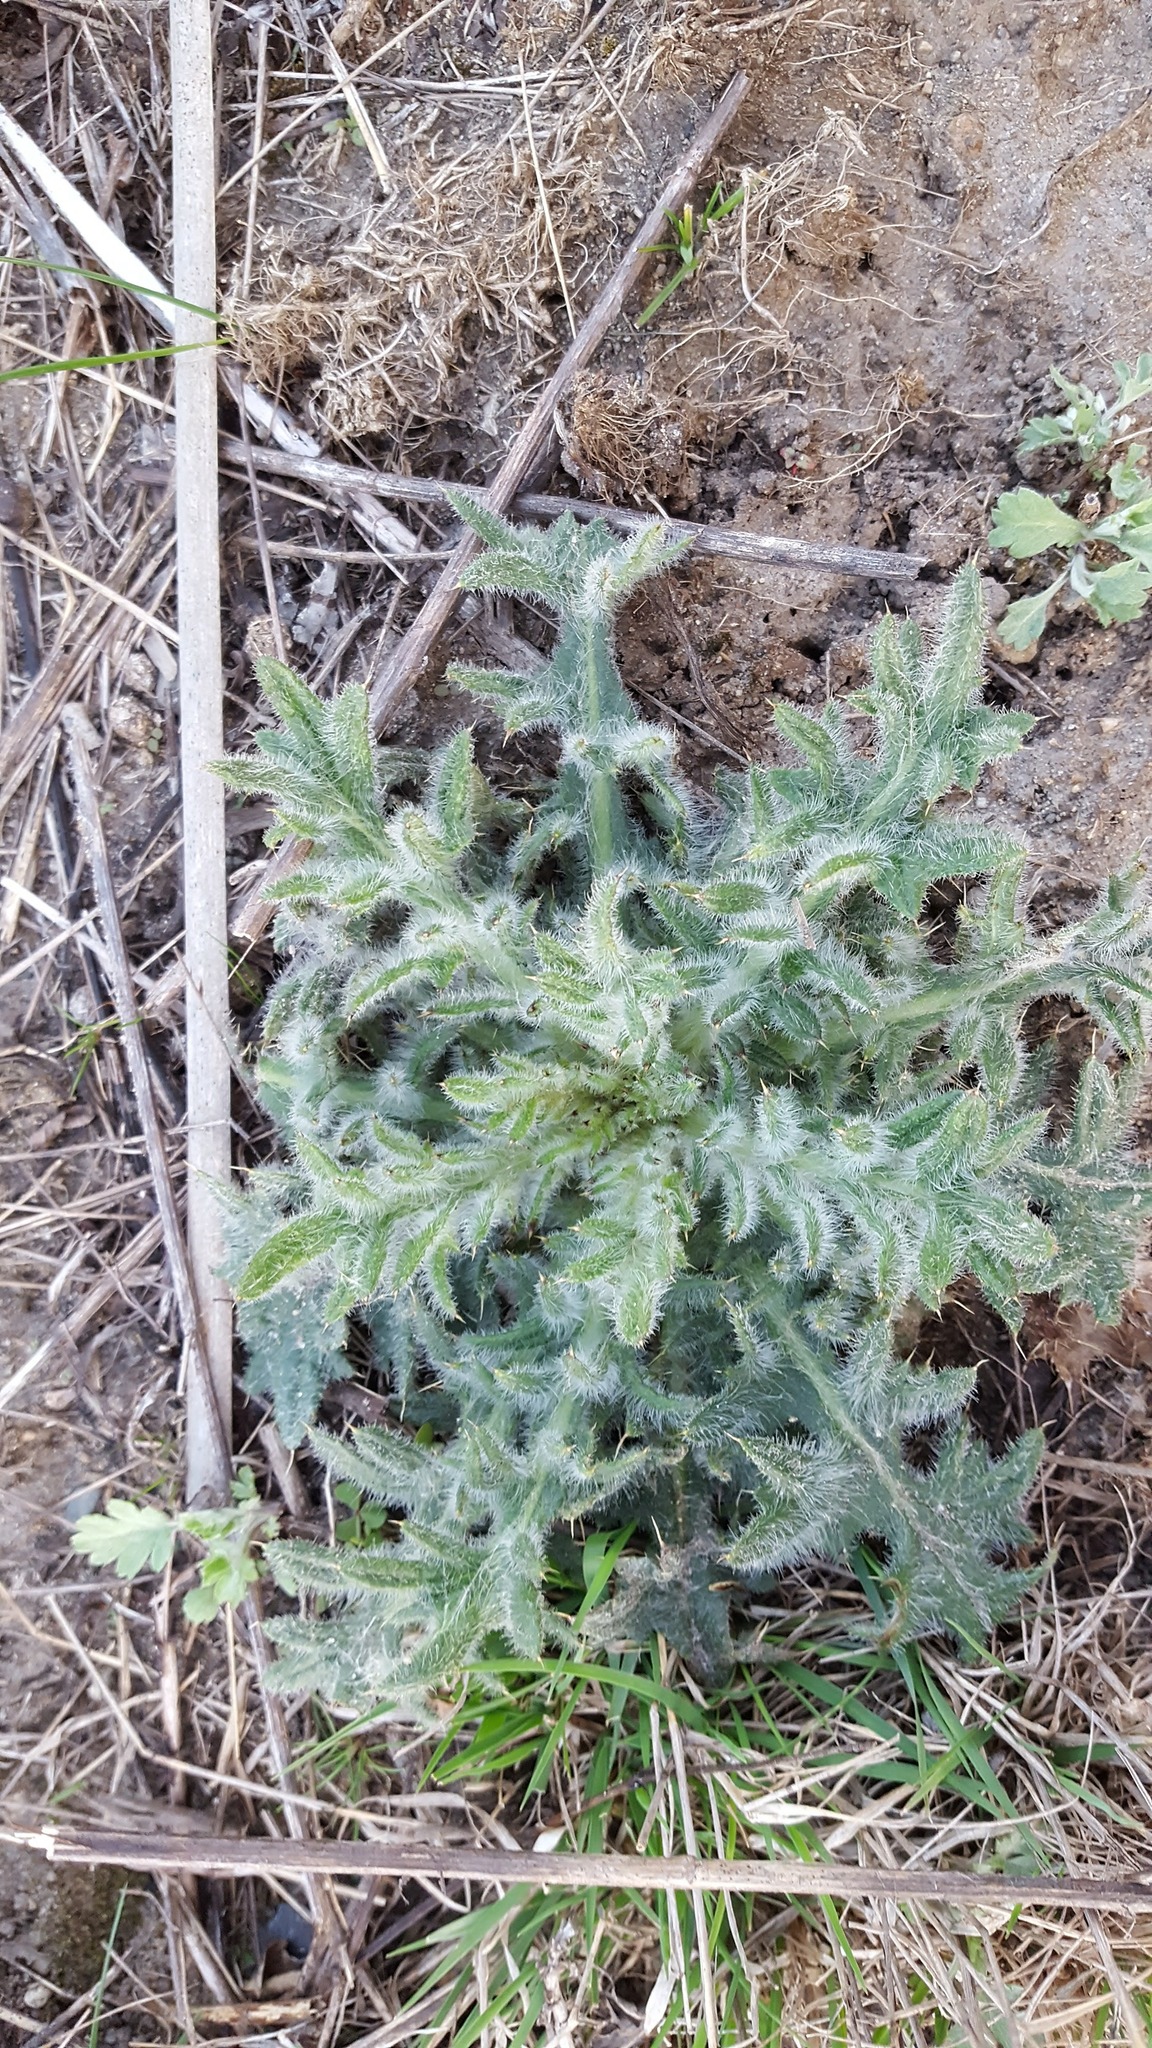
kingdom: Plantae
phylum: Tracheophyta
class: Magnoliopsida
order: Asterales
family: Asteraceae
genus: Cirsium
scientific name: Cirsium vulgare
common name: Bull thistle
